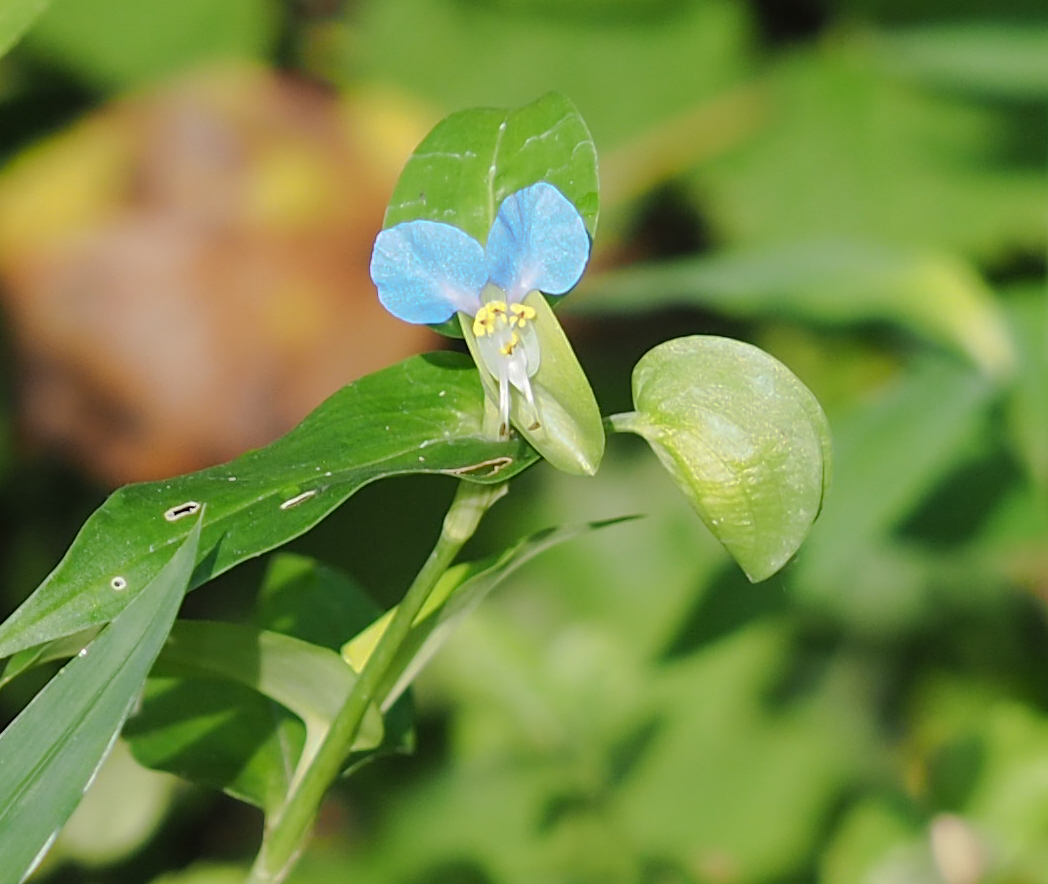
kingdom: Plantae
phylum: Tracheophyta
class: Liliopsida
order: Commelinales
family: Commelinaceae
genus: Commelina
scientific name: Commelina communis
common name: Asiatic dayflower
